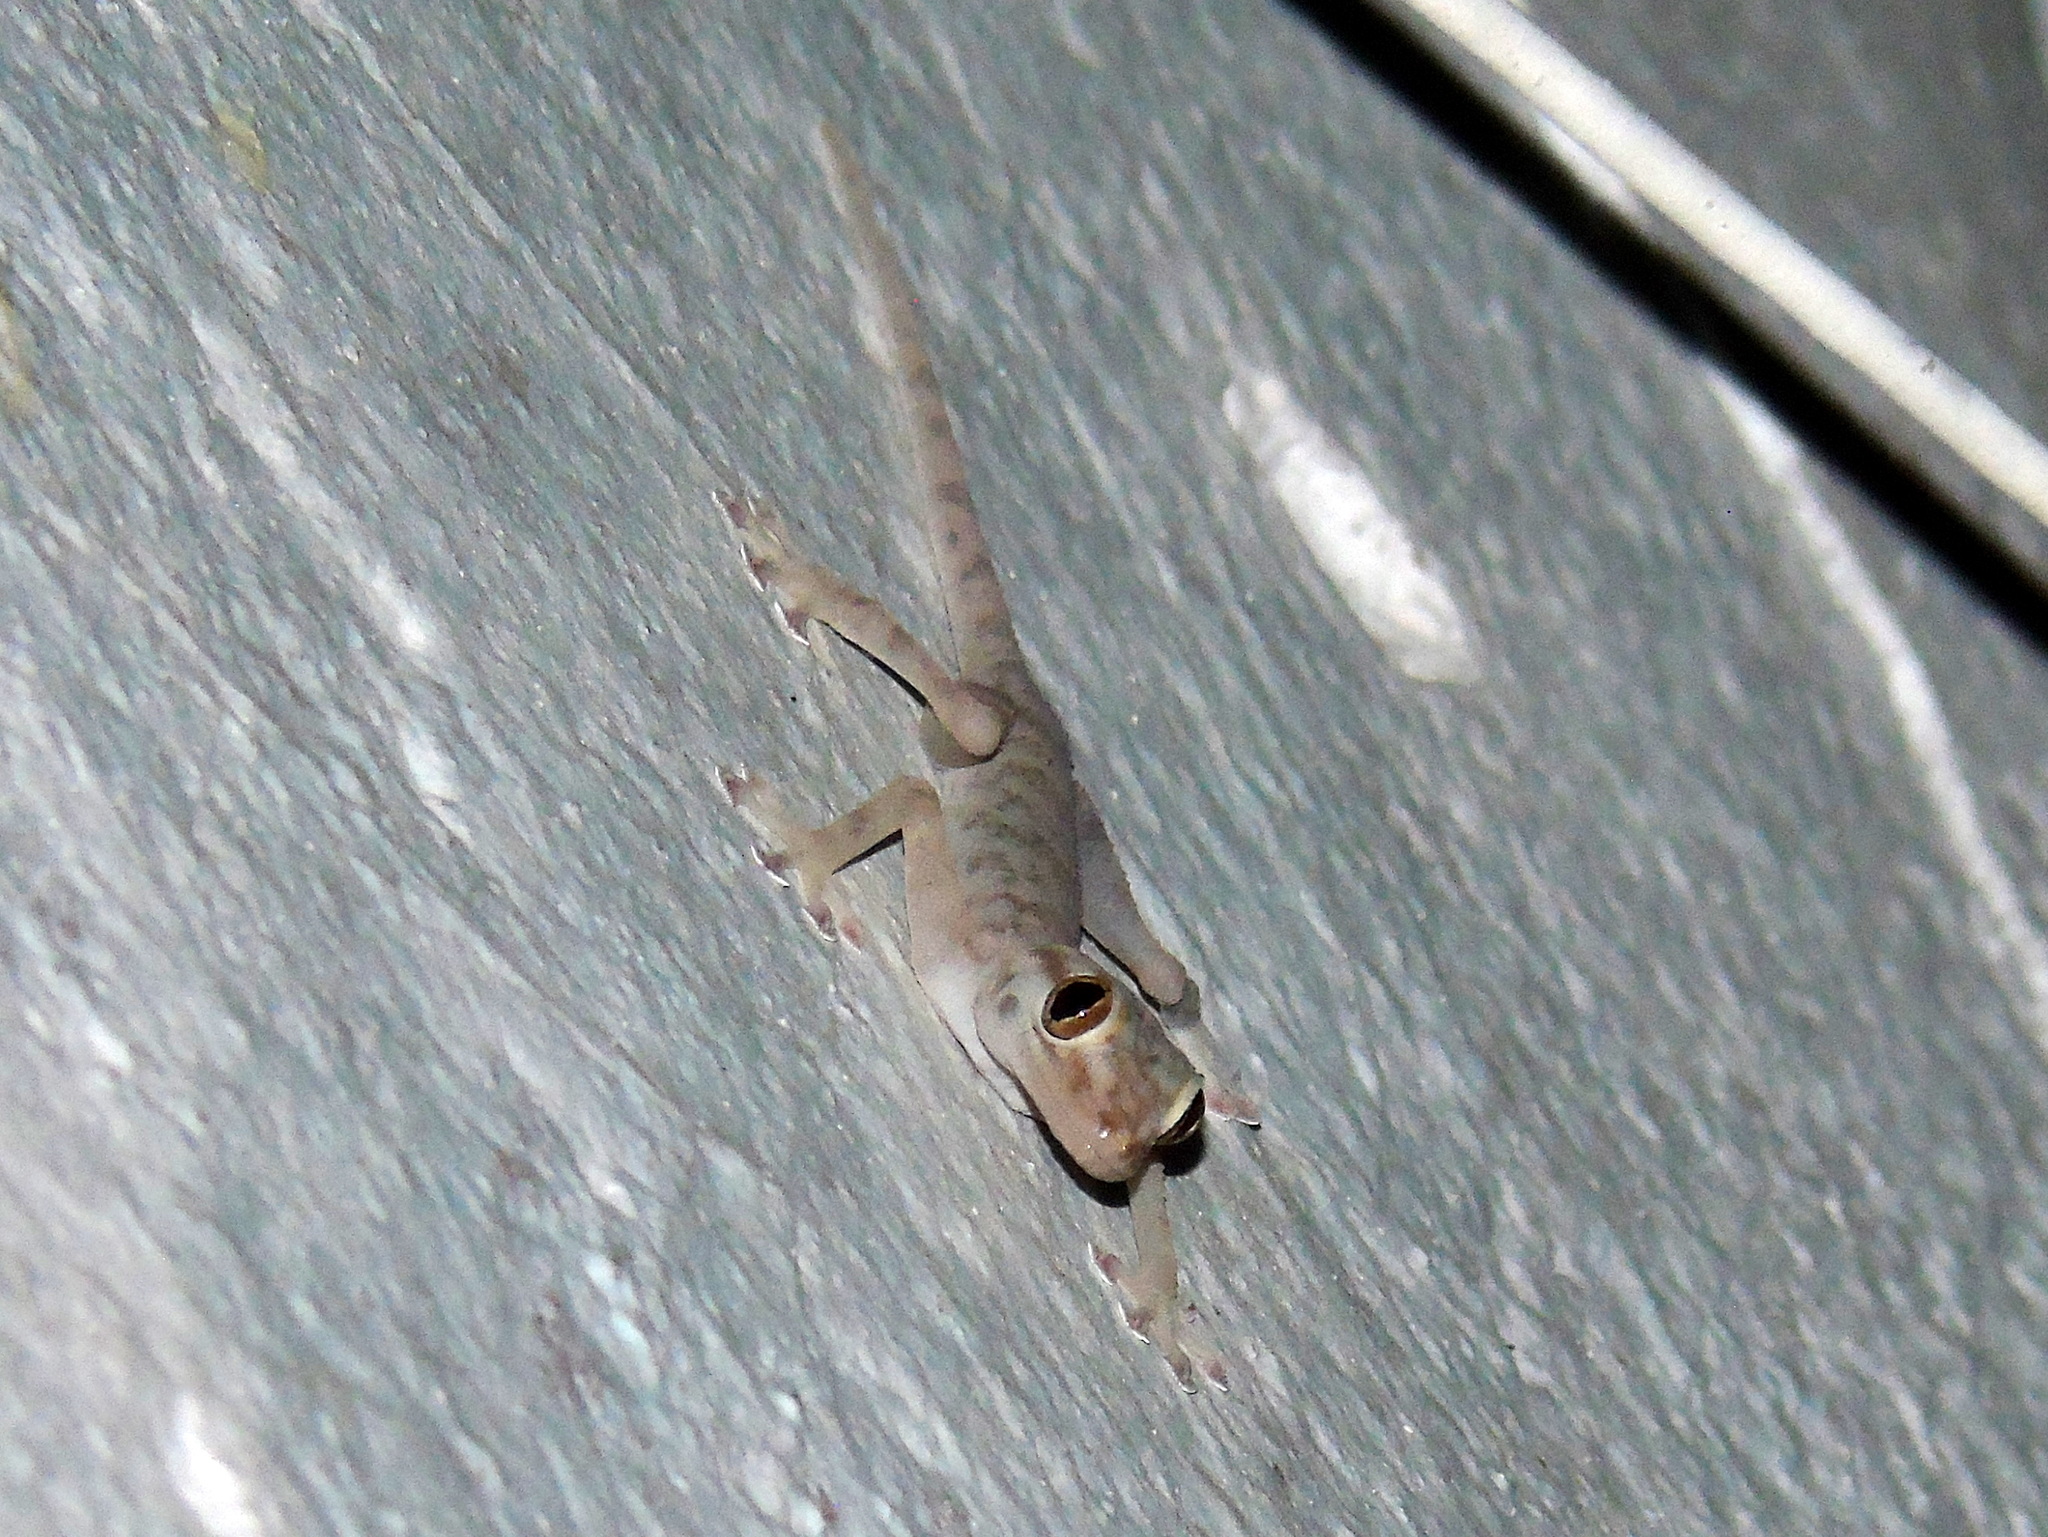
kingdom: Animalia
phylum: Chordata
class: Squamata
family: Phyllodactylidae
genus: Ptyodactylus
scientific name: Ptyodactylus hasselquistii
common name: Hasselquist’s fan-footed gecko
